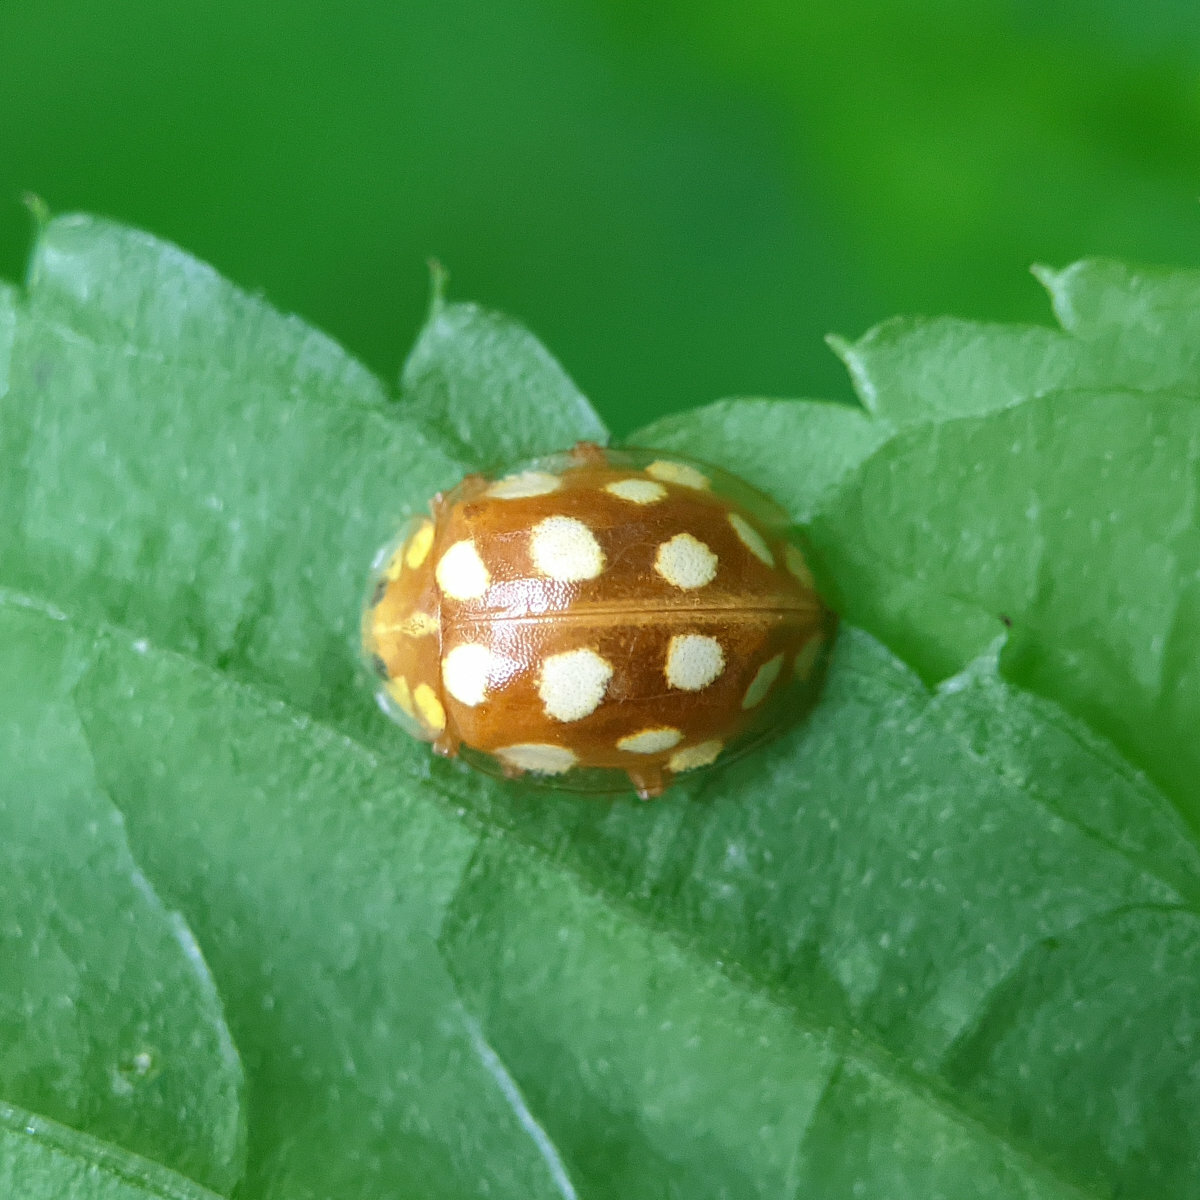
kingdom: Animalia
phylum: Arthropoda
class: Insecta
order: Coleoptera
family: Coccinellidae
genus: Halyzia
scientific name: Halyzia sedecimguttata
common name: Orange ladybird
